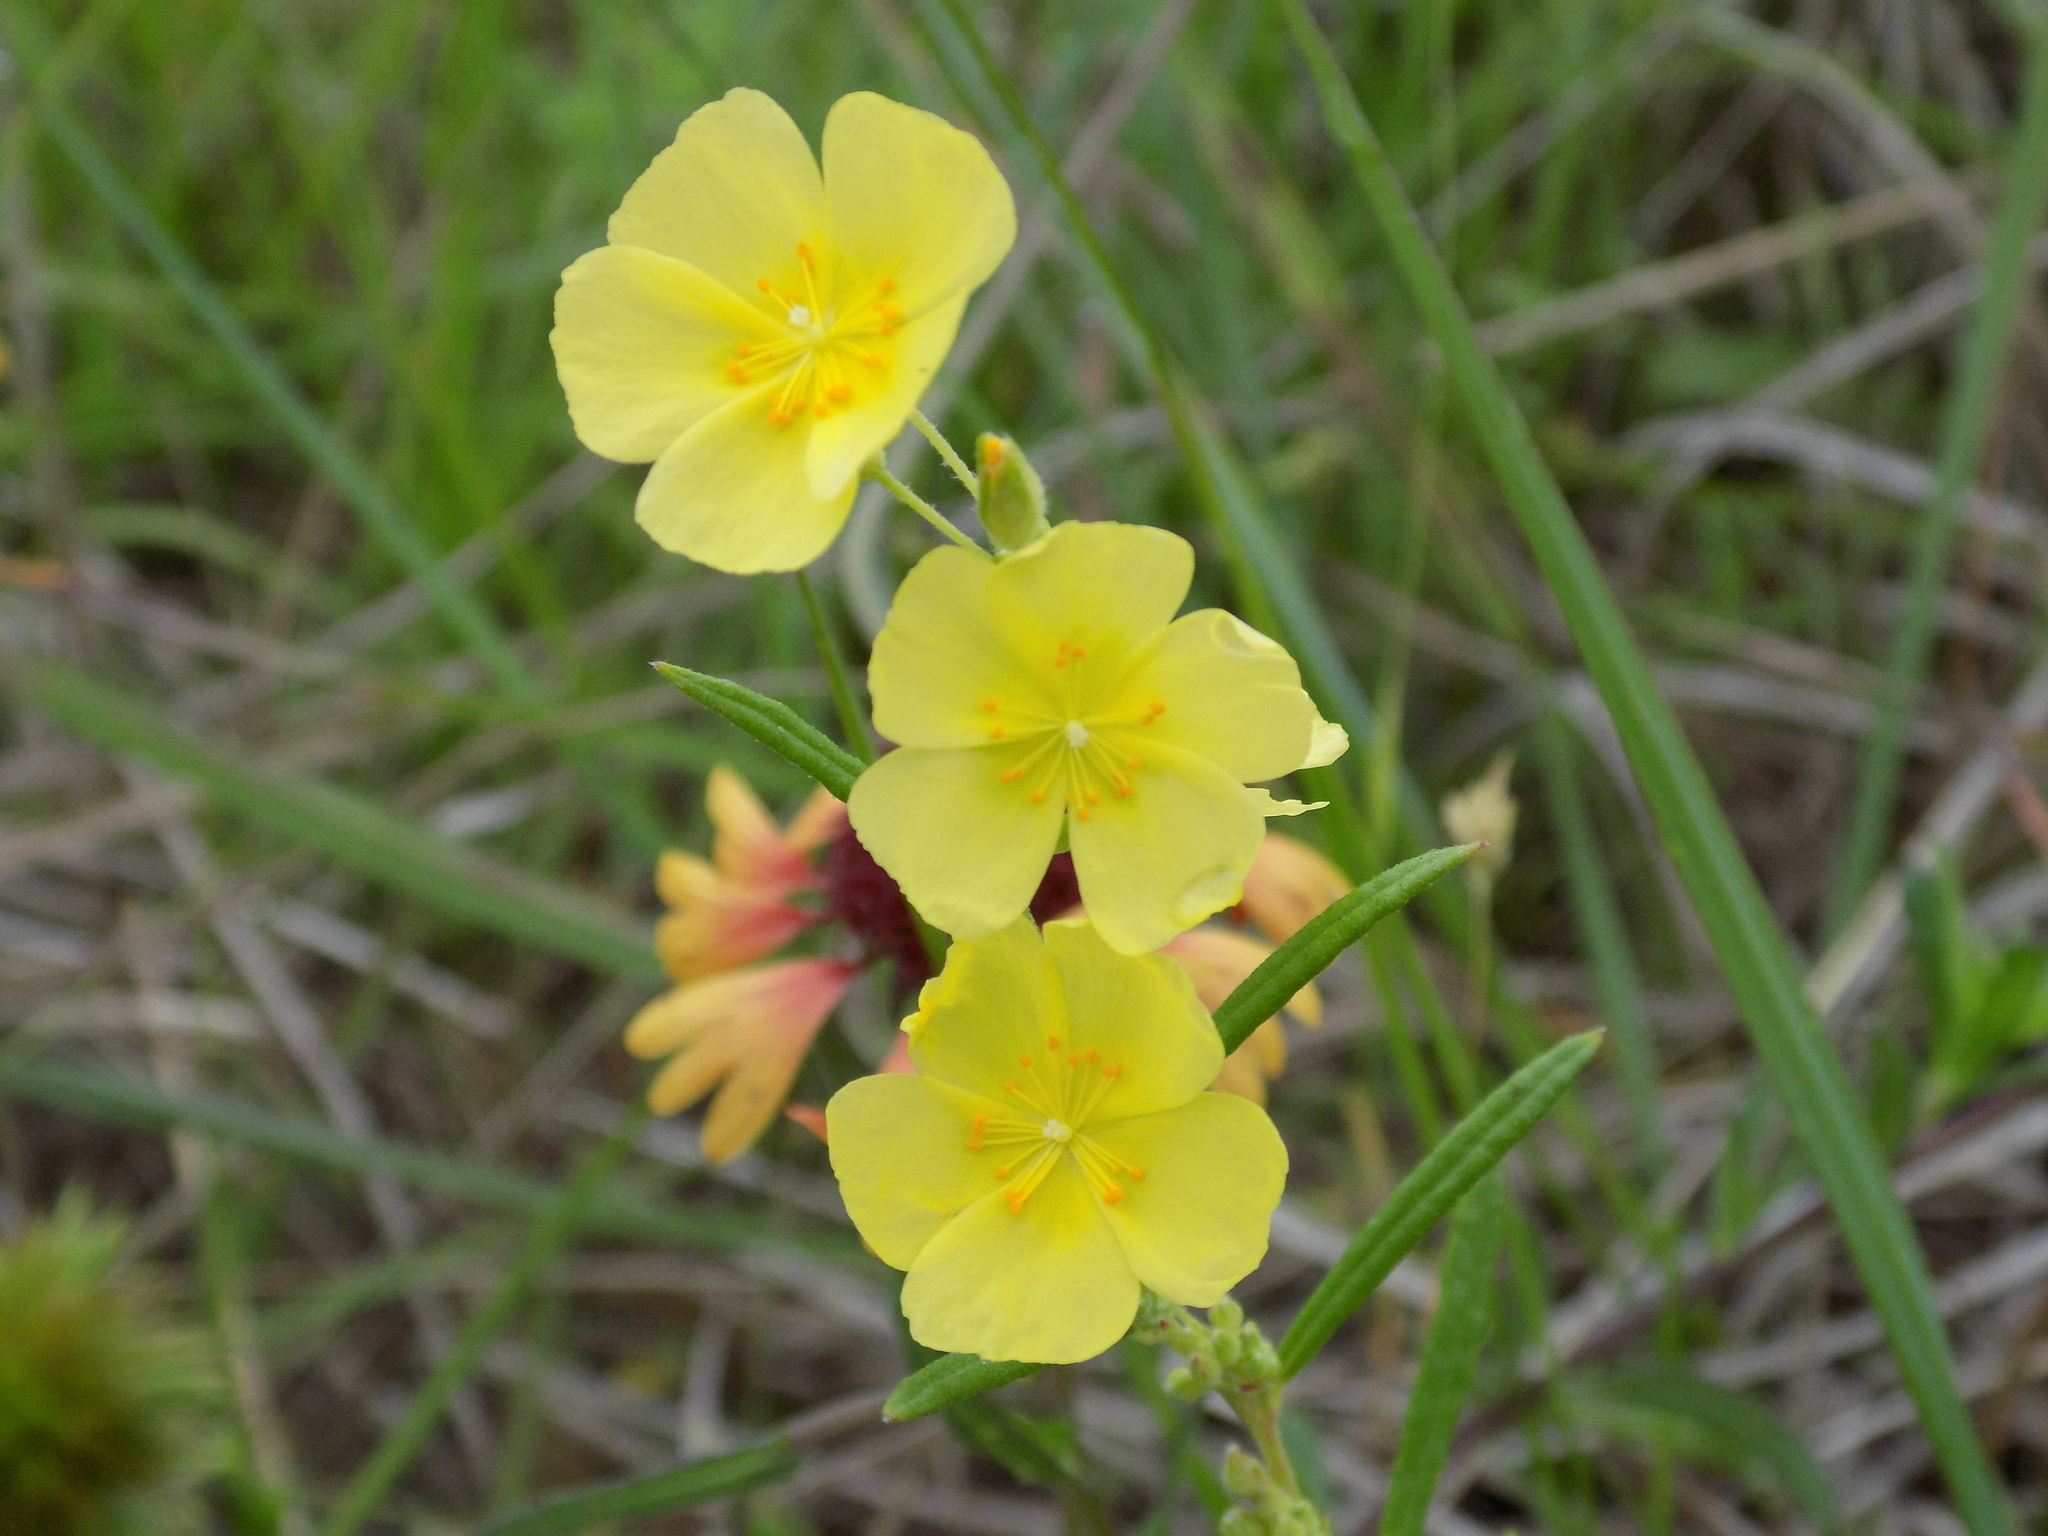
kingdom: Plantae
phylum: Tracheophyta
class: Magnoliopsida
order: Malvales
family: Cistaceae
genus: Crocanthemum
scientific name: Crocanthemum georgianum
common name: Georgia frostweed
